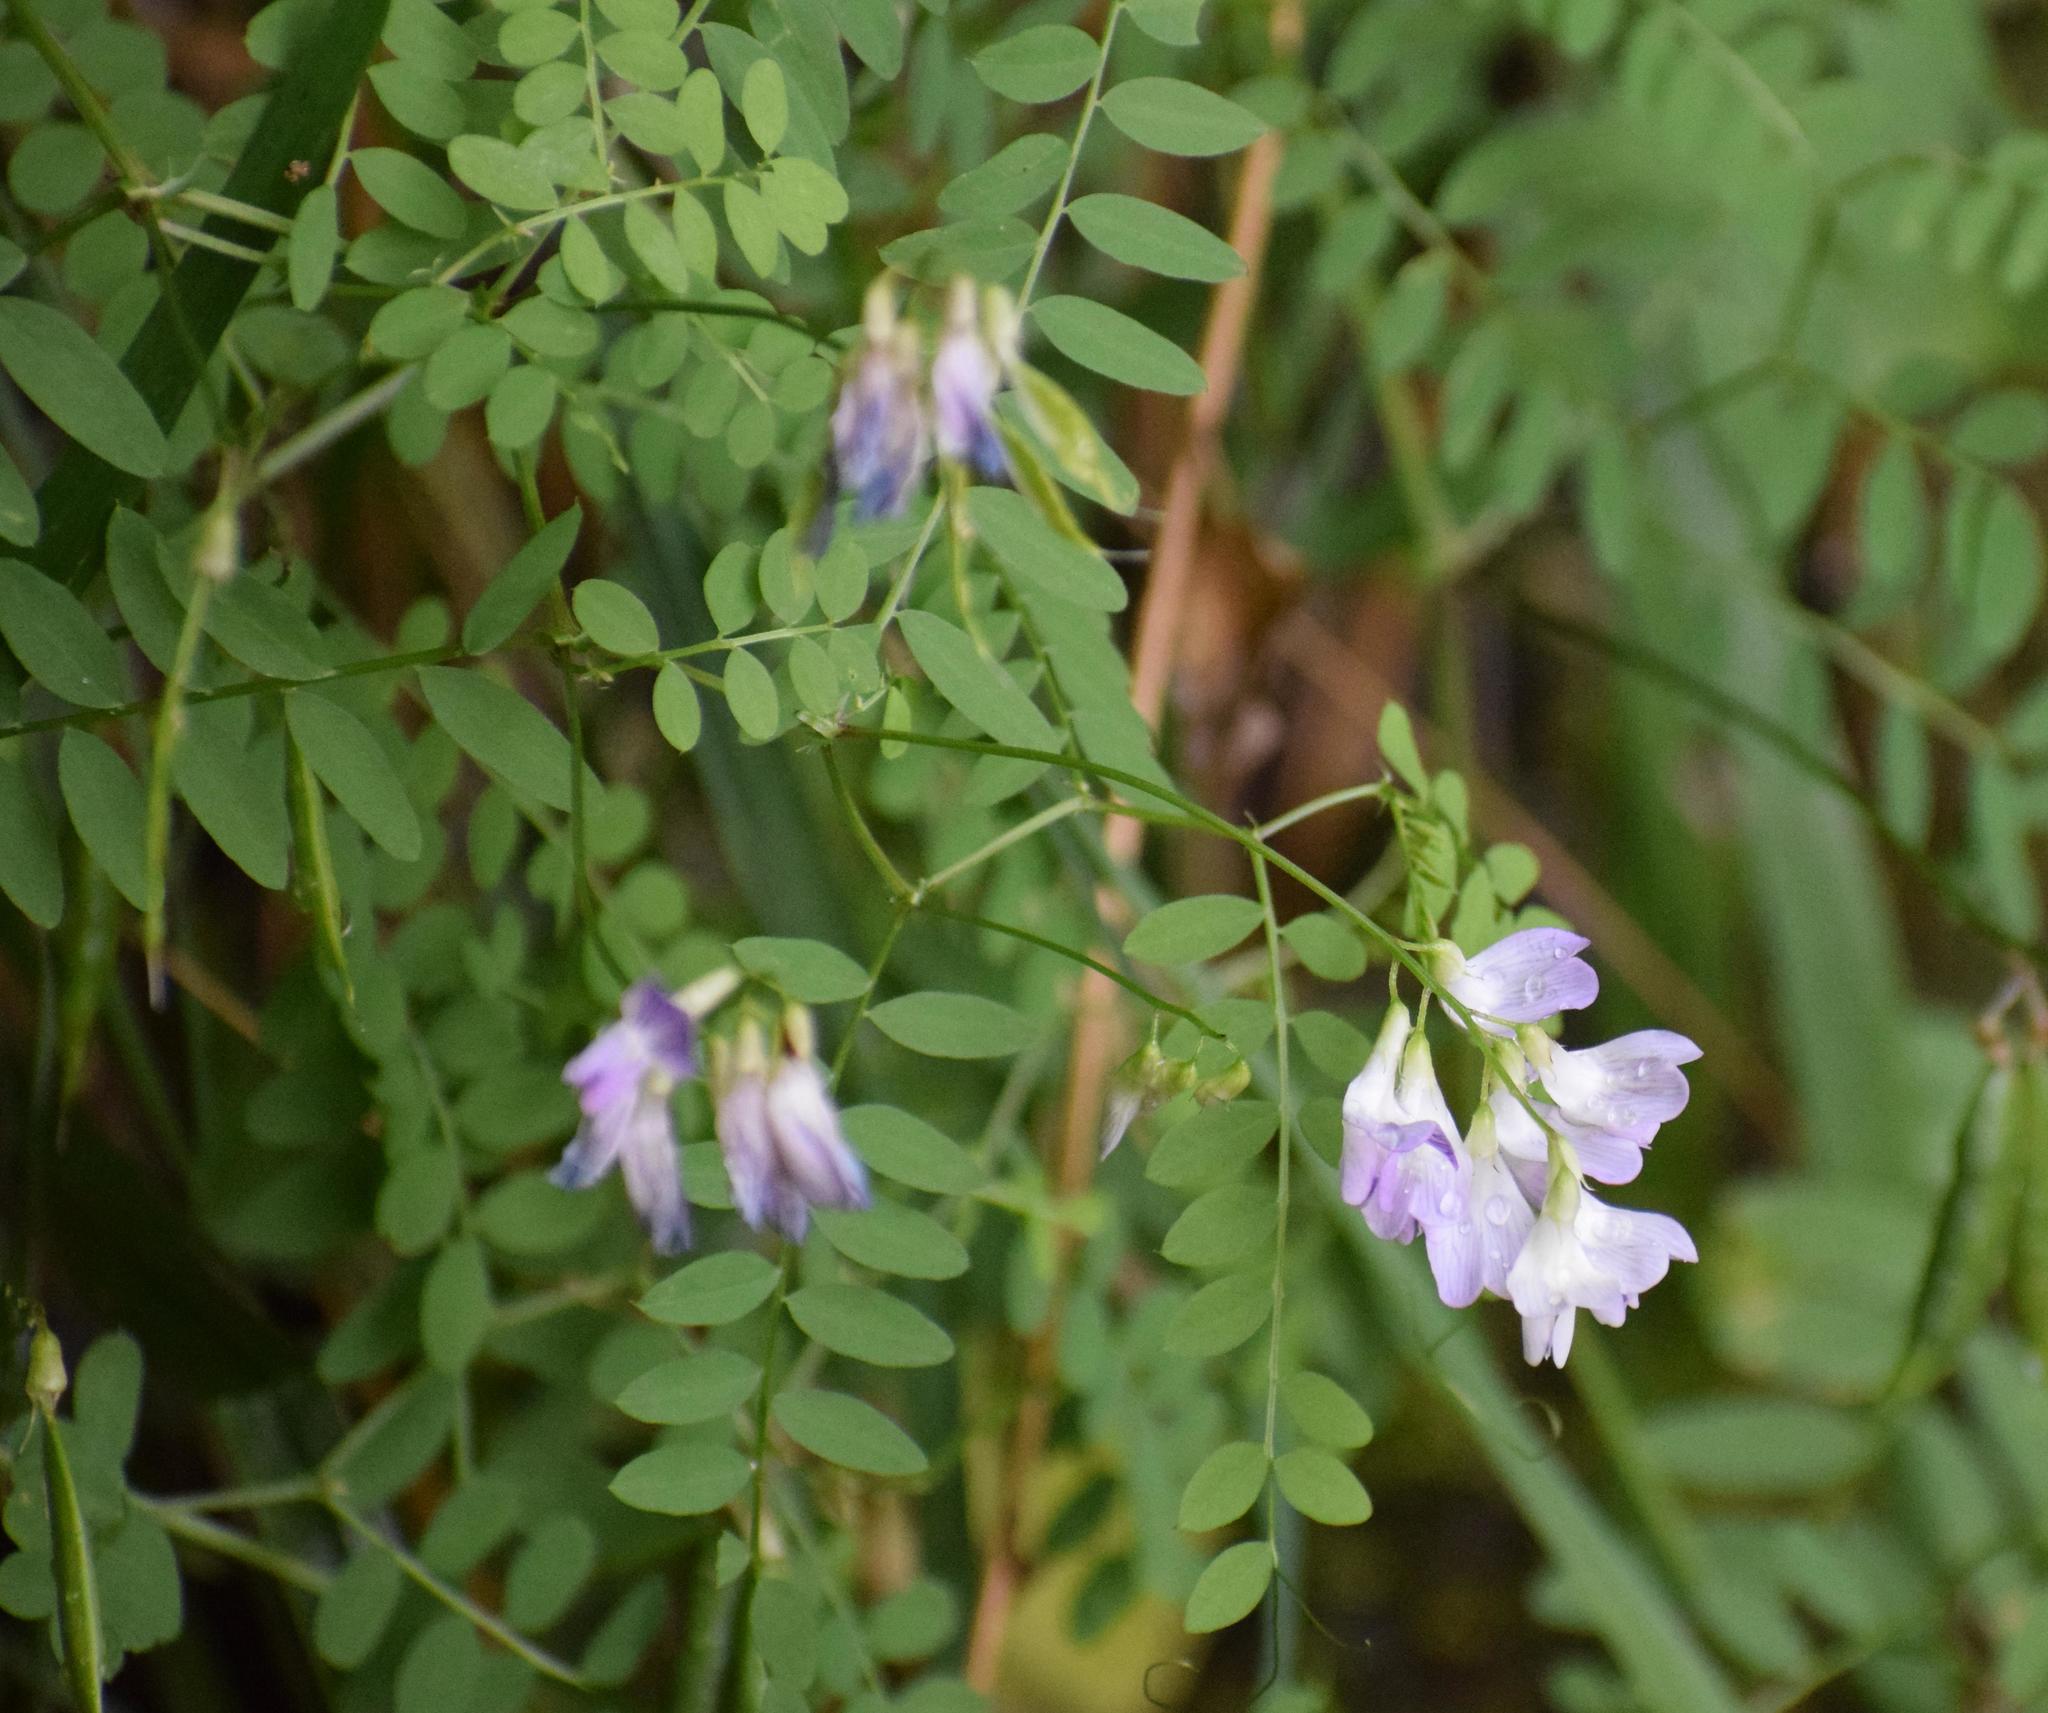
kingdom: Plantae
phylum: Tracheophyta
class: Magnoliopsida
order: Fabales
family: Fabaceae
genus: Vicia
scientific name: Vicia sylvatica
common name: Wood vetch
